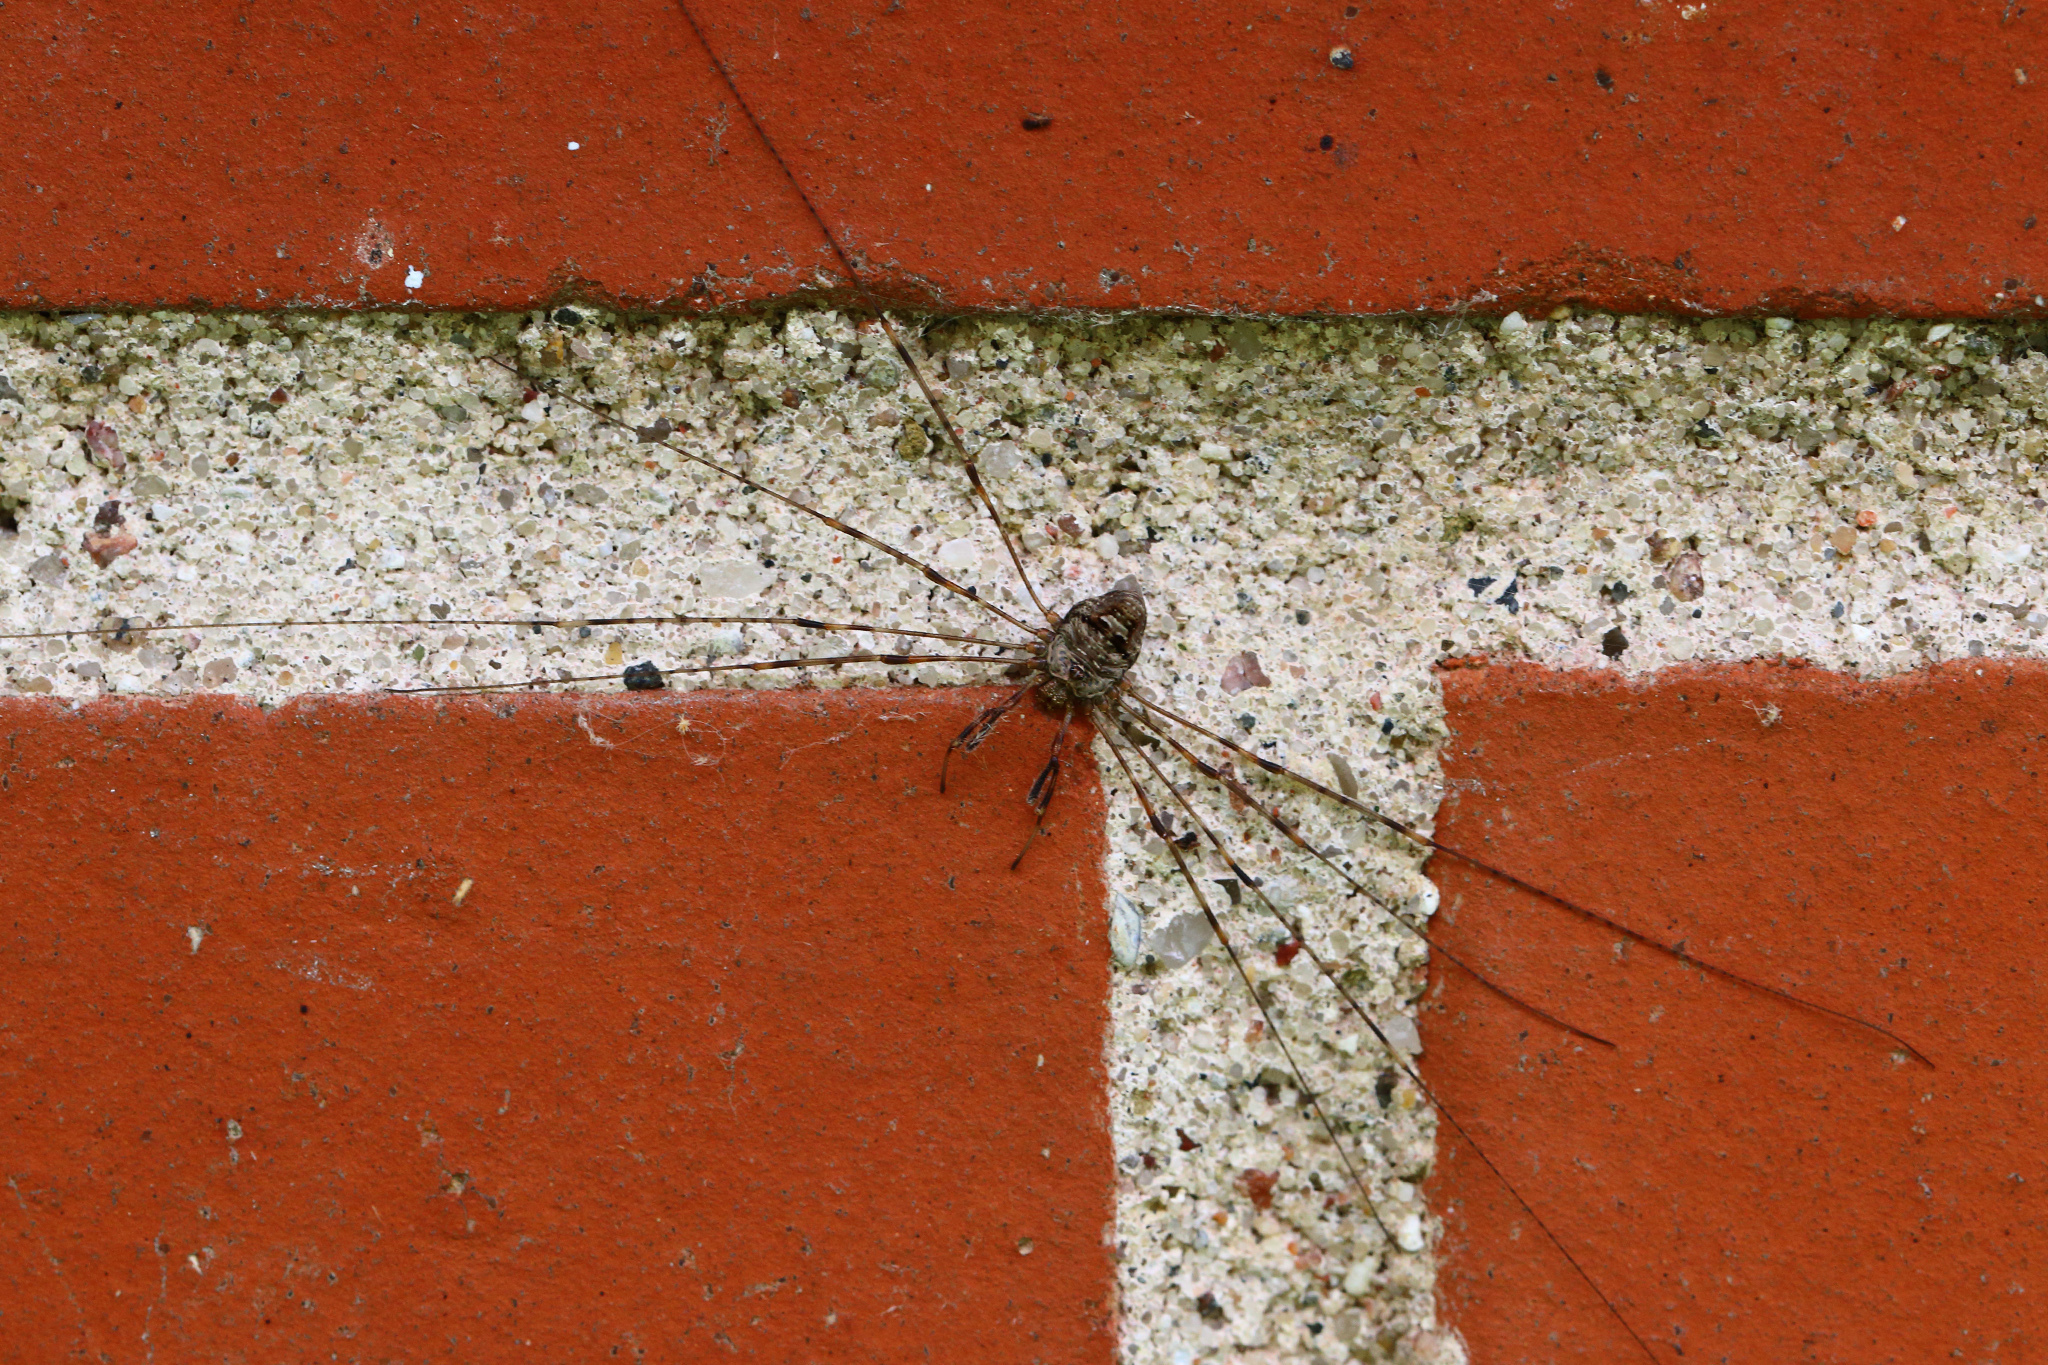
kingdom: Animalia
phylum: Arthropoda
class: Arachnida
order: Opiliones
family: Phalangiidae
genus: Dicranopalpus
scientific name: Dicranopalpus ramosus
